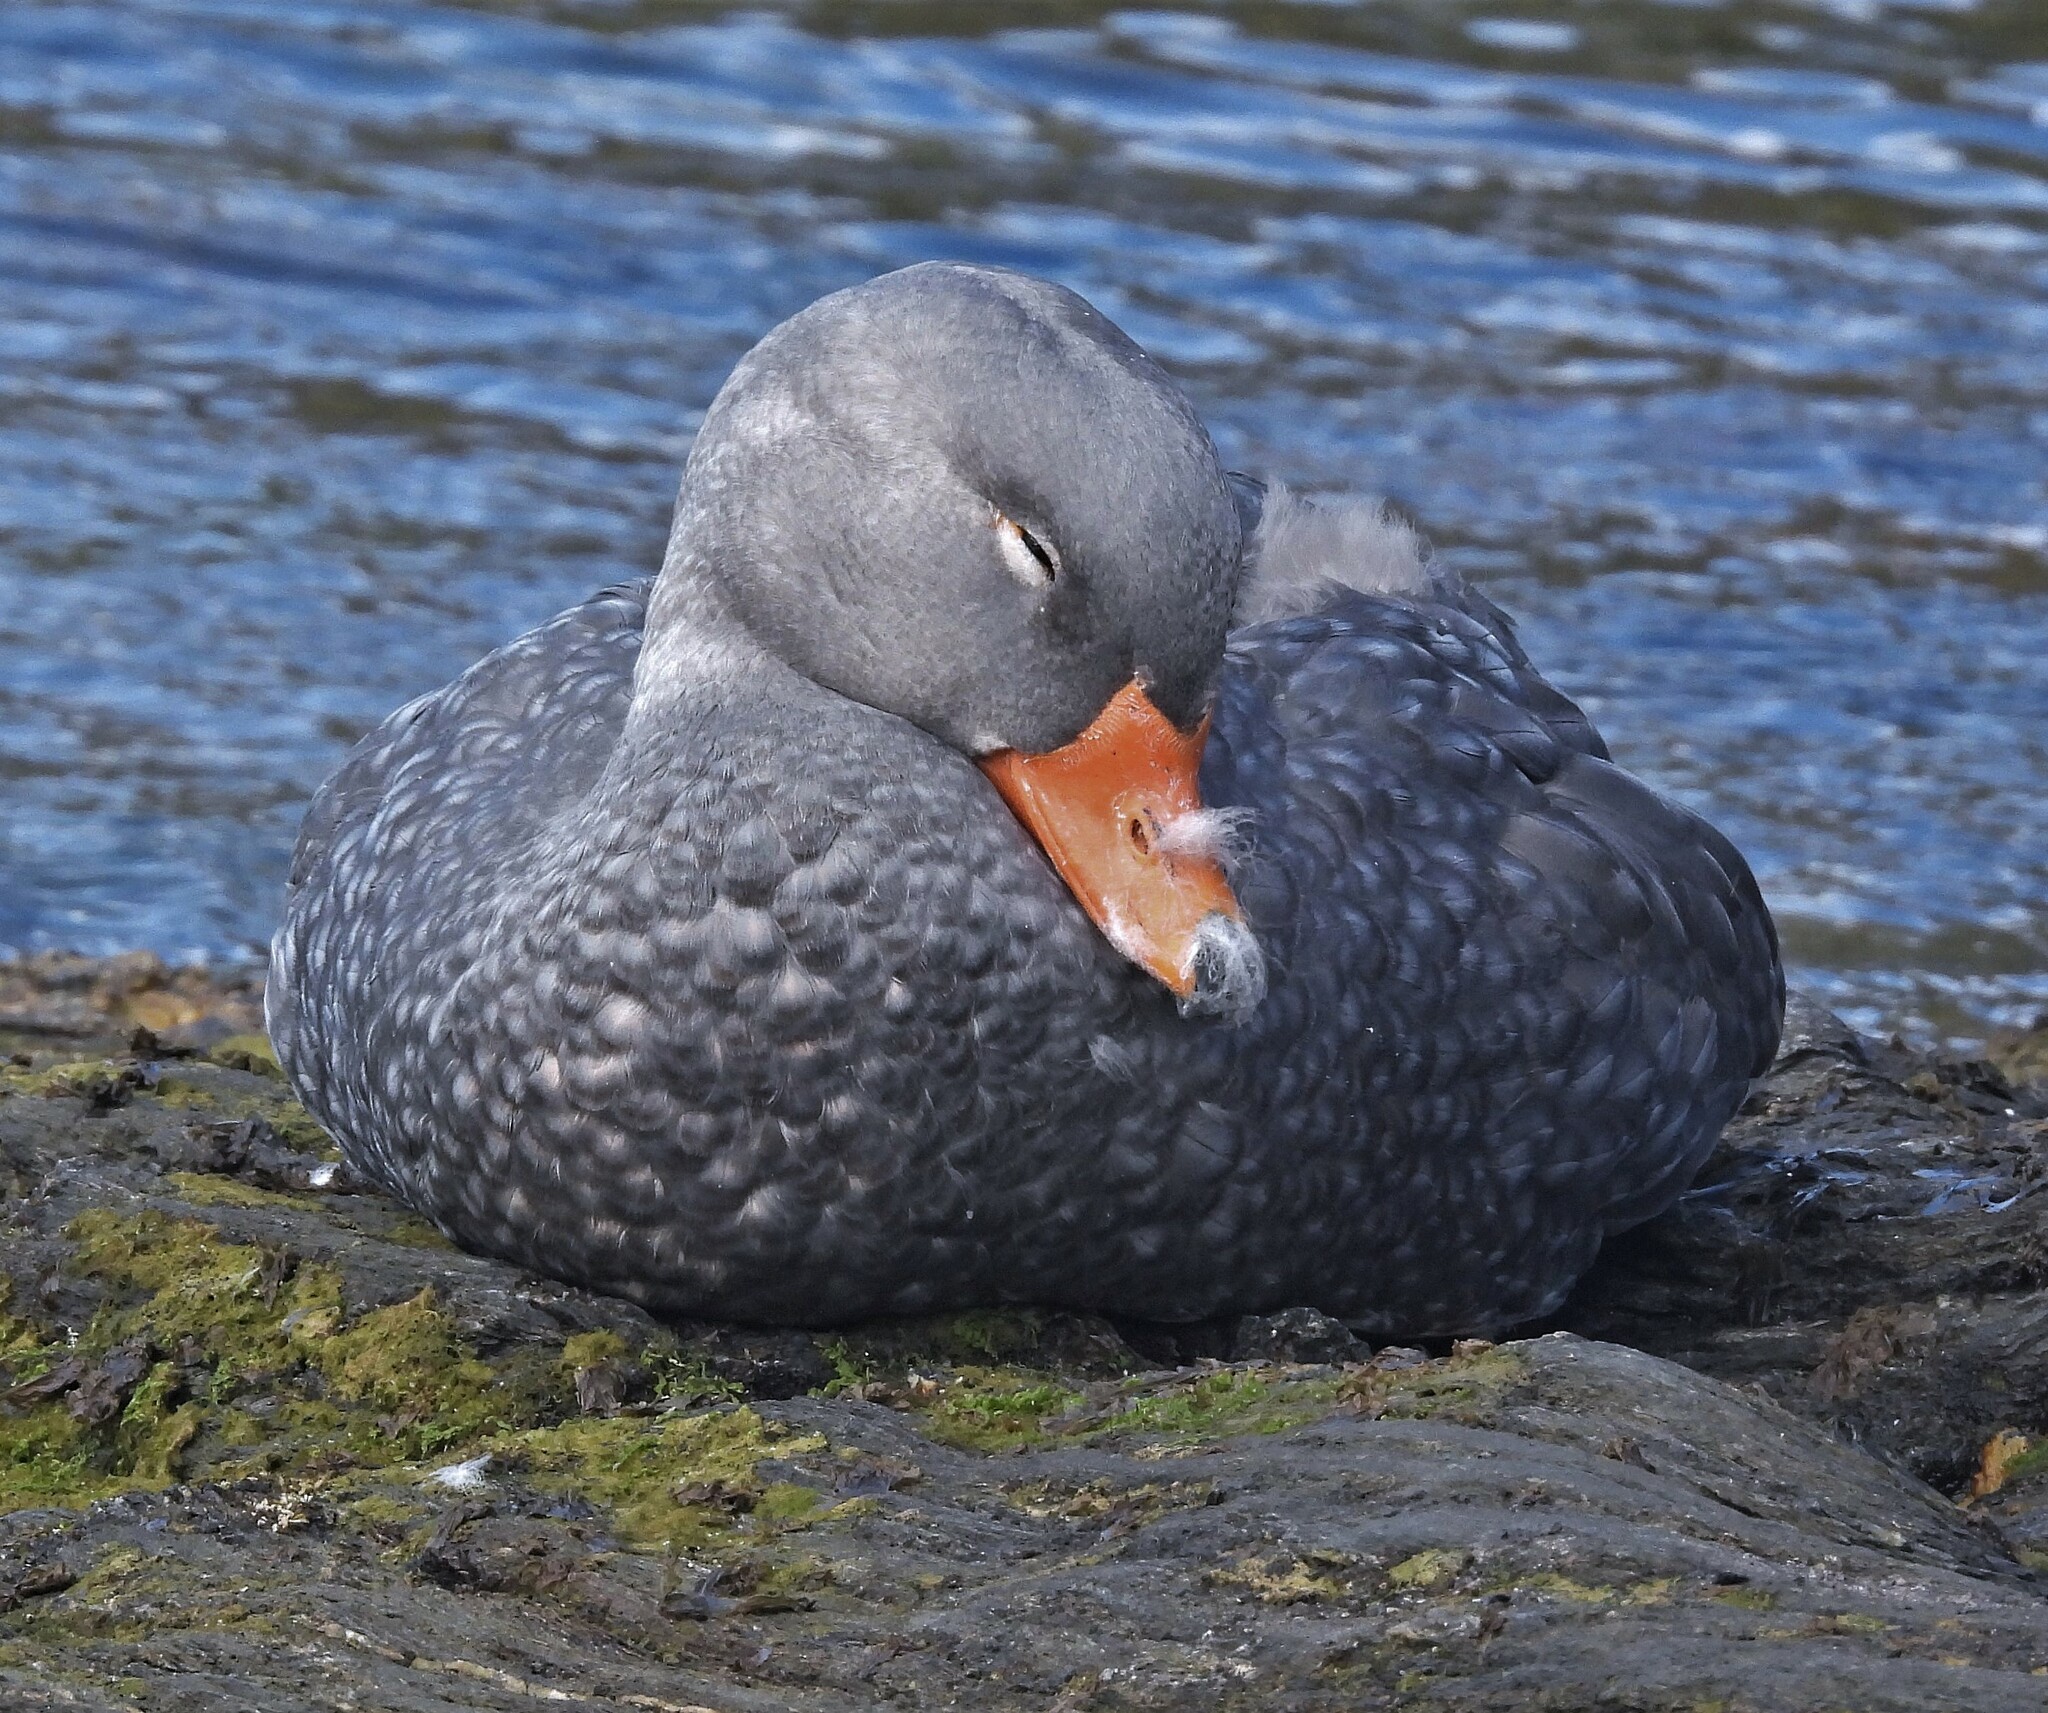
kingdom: Animalia
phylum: Chordata
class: Aves
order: Anseriformes
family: Anatidae
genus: Tachyeres
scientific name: Tachyeres pteneres
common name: Fuegian steamer duck
